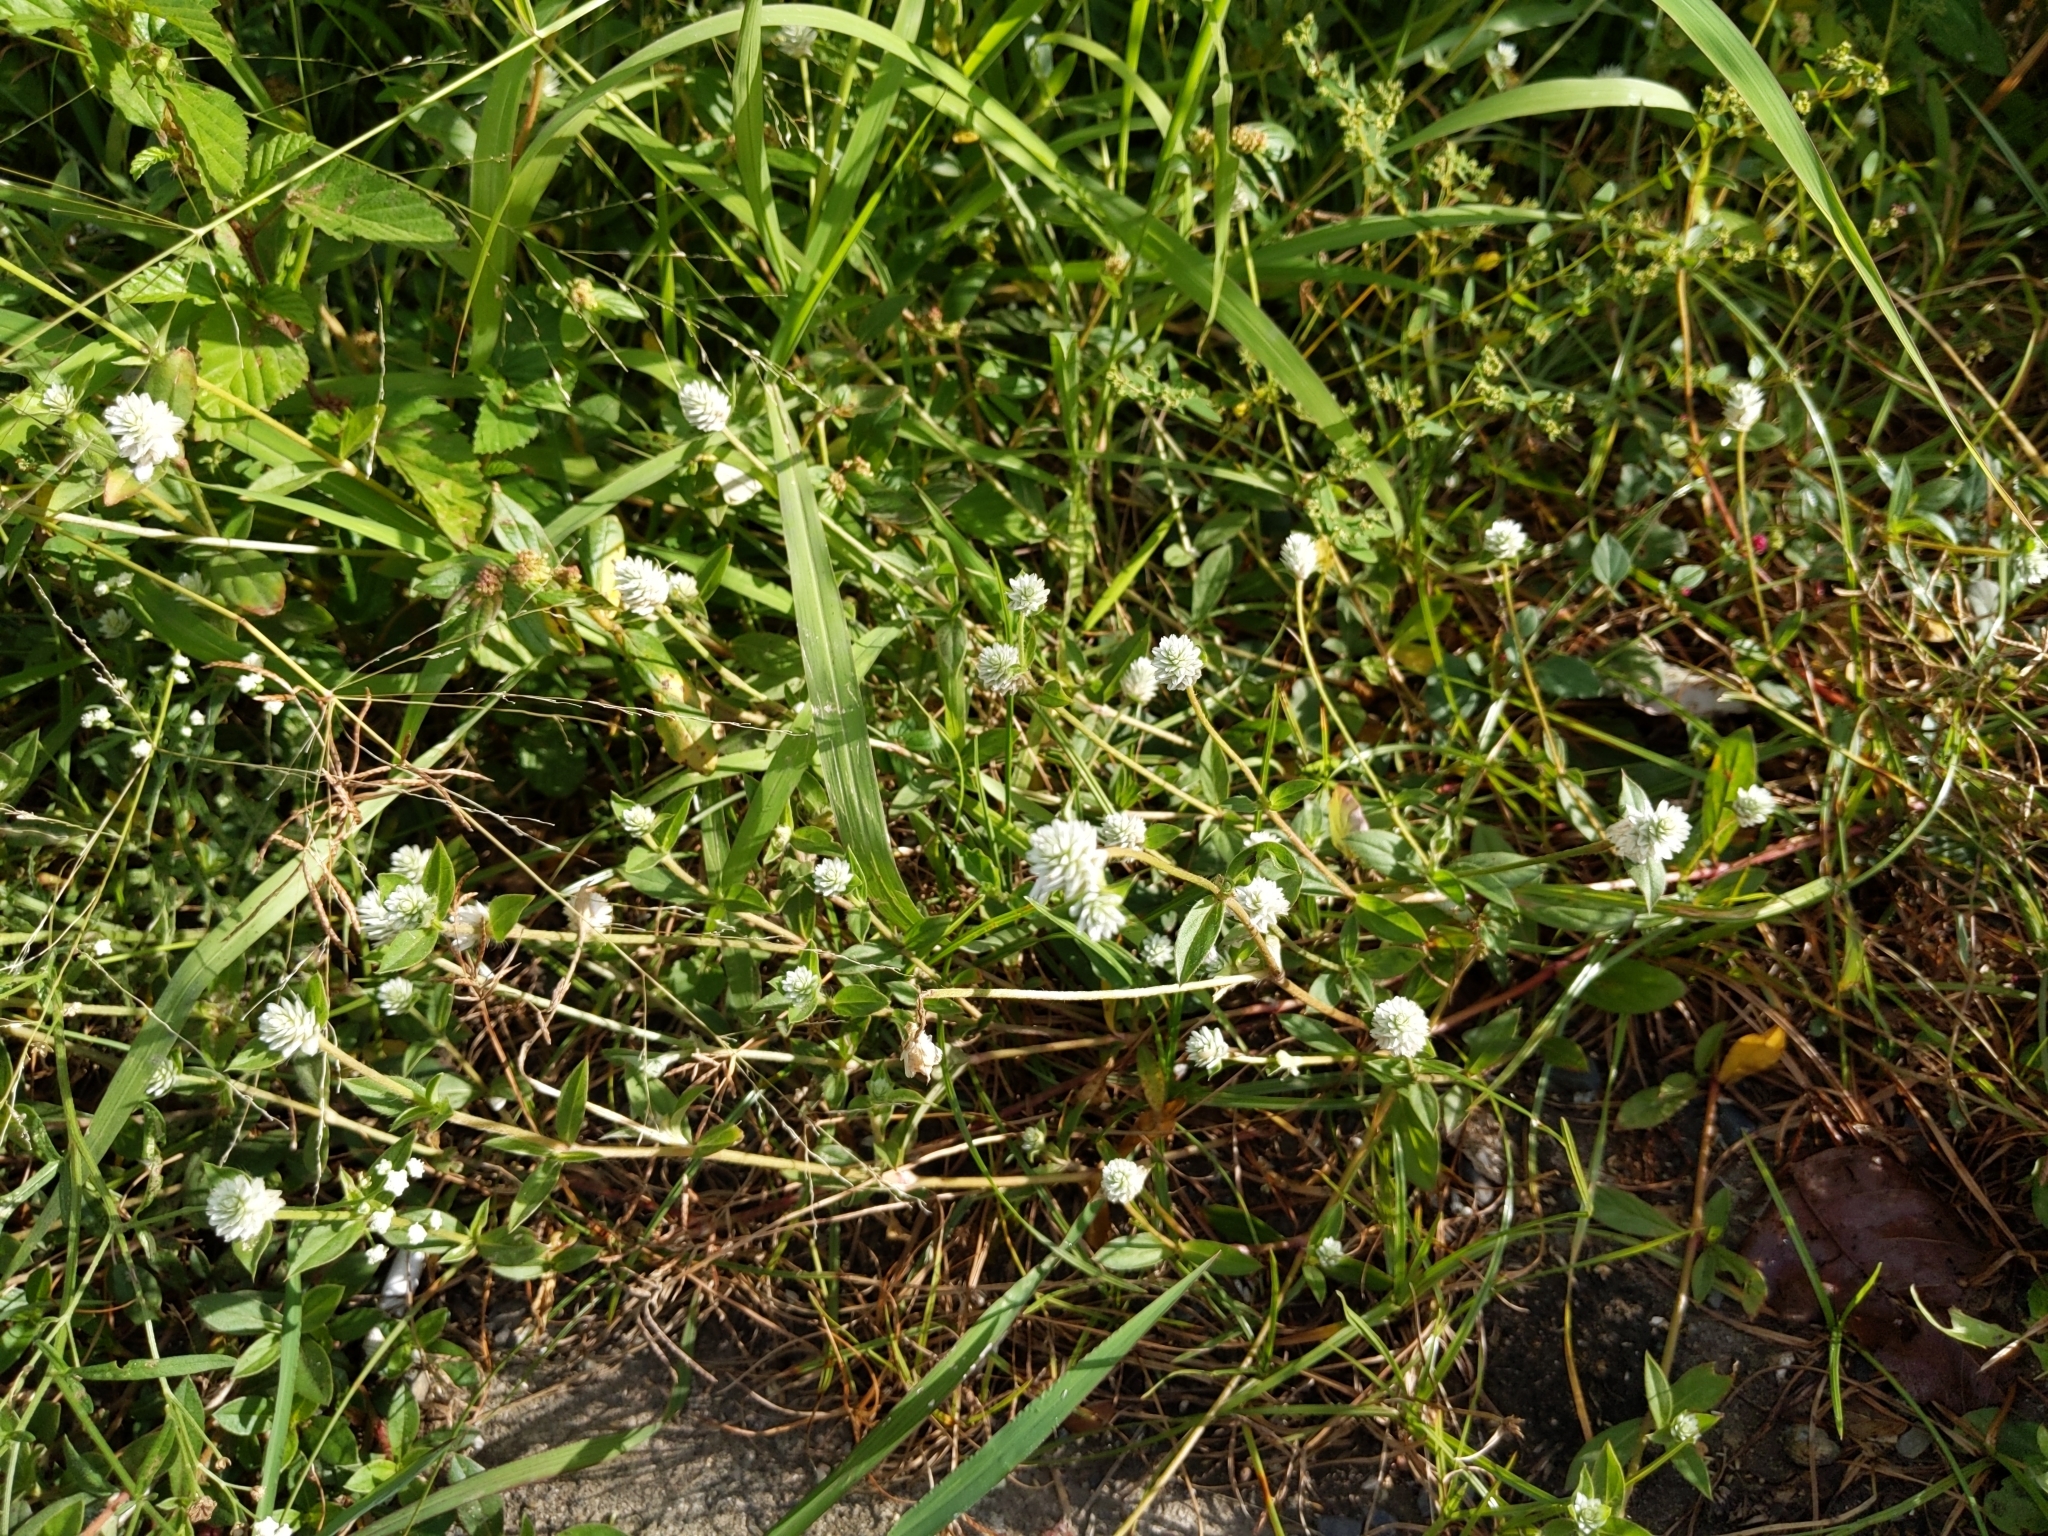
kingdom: Plantae
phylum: Tracheophyta
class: Magnoliopsida
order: Caryophyllales
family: Amaranthaceae
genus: Gomphrena
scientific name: Gomphrena serrata
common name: Arrasa con todo
